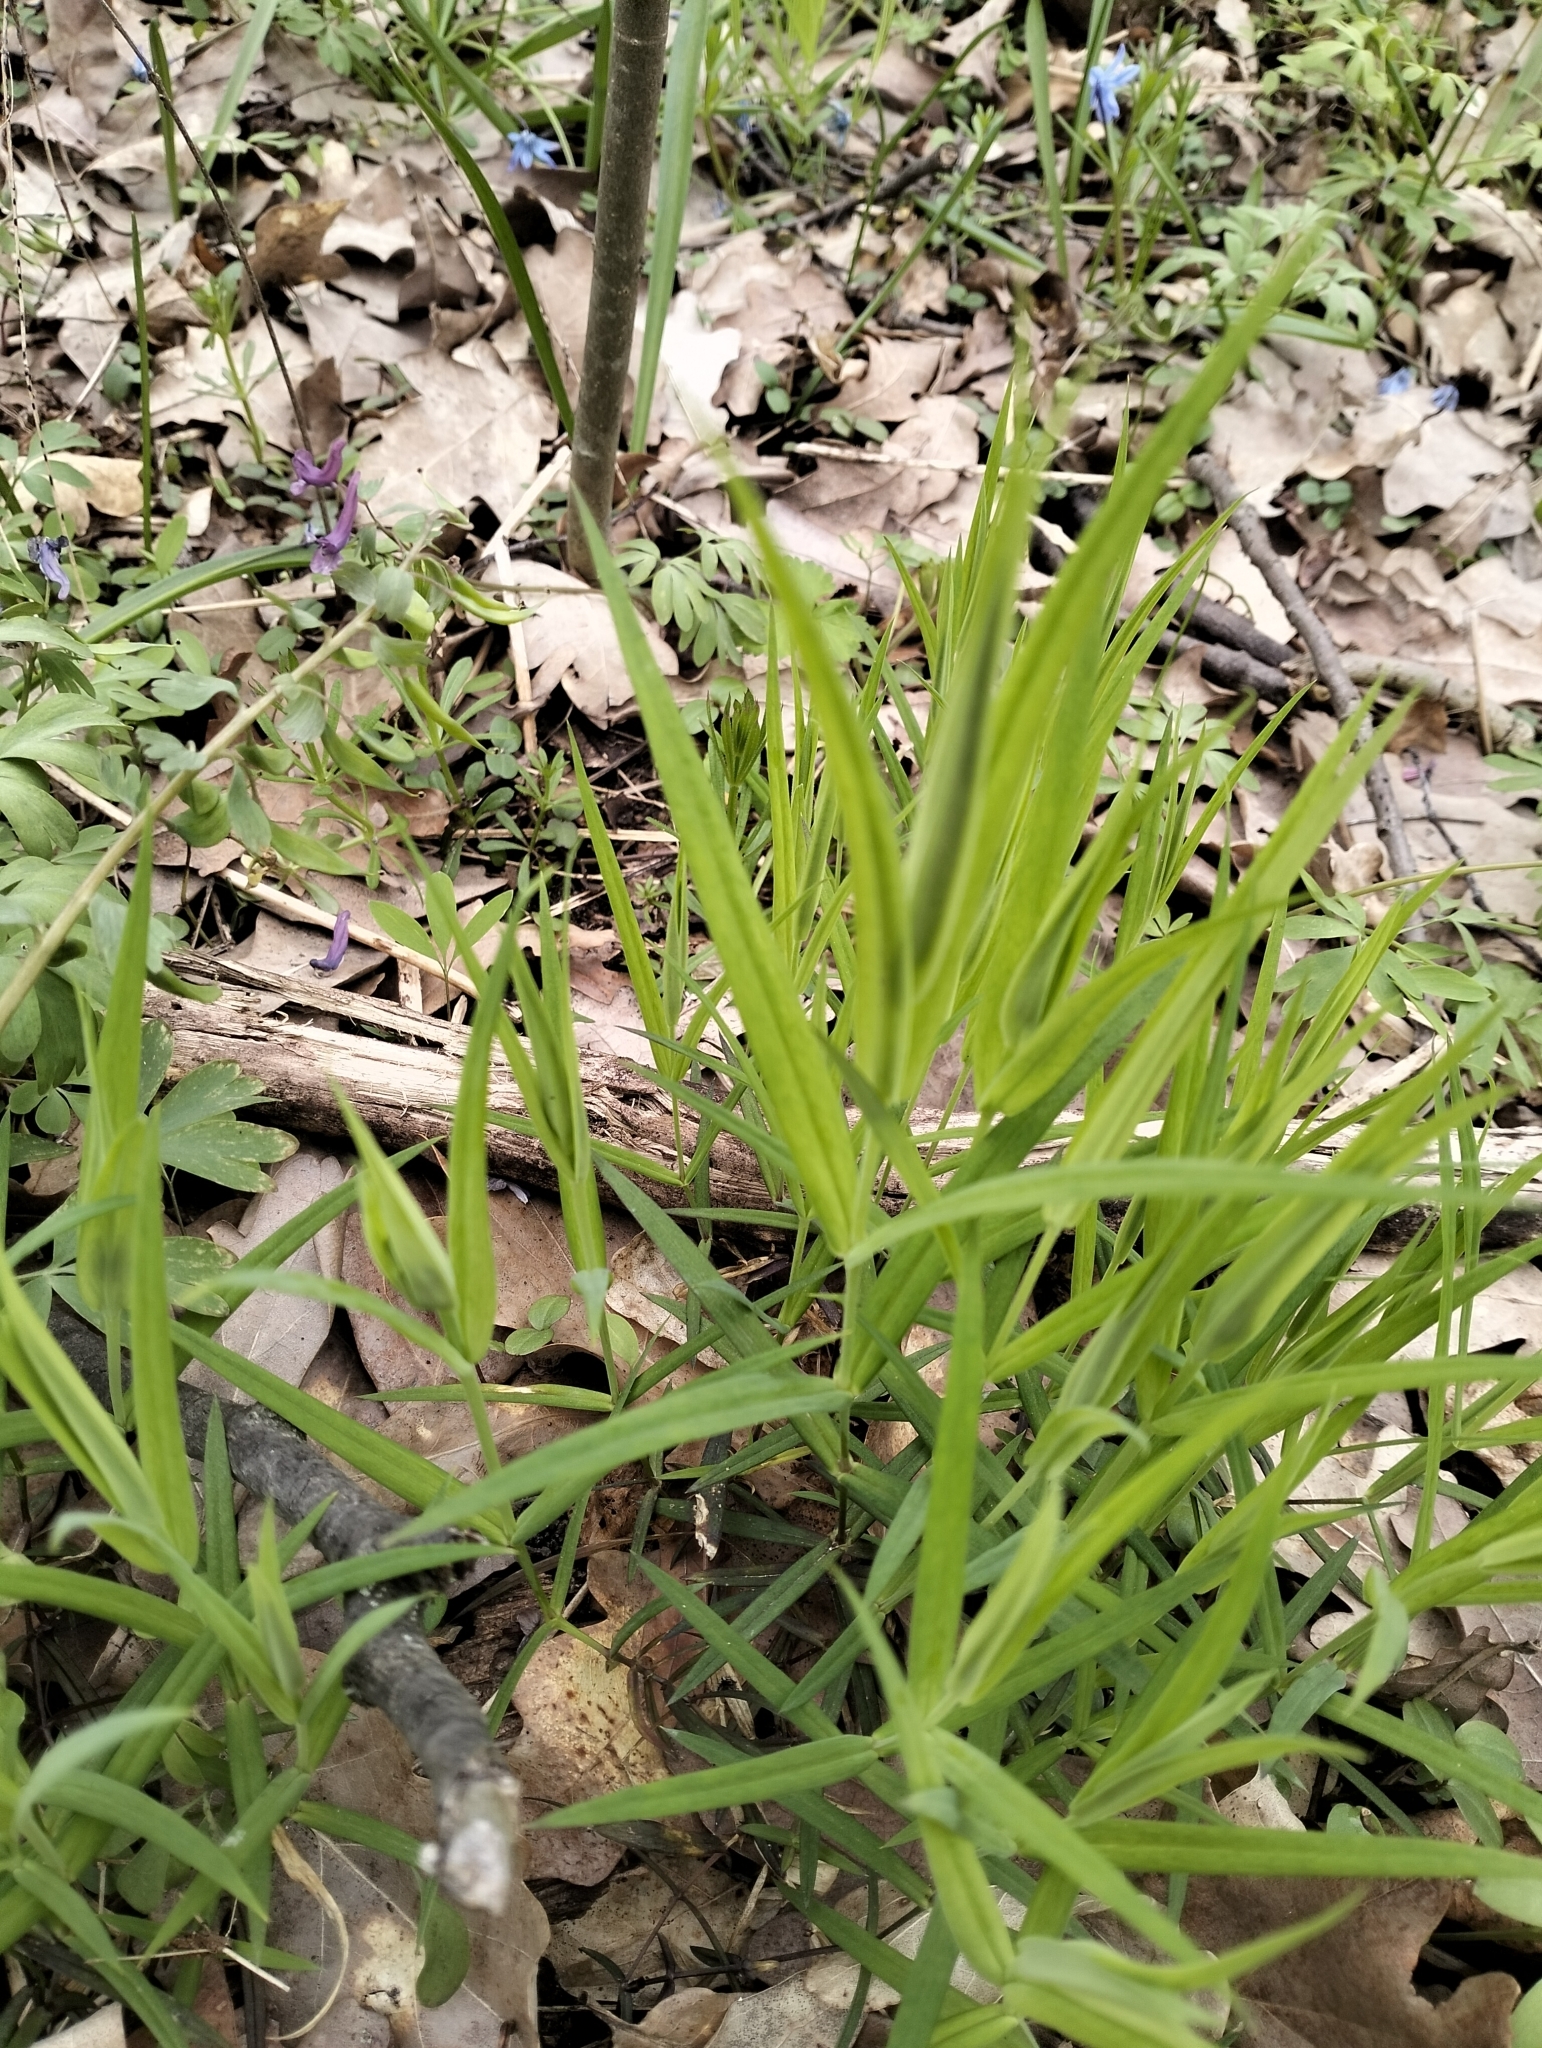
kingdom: Plantae
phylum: Tracheophyta
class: Magnoliopsida
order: Caryophyllales
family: Caryophyllaceae
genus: Rabelera
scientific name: Rabelera holostea
